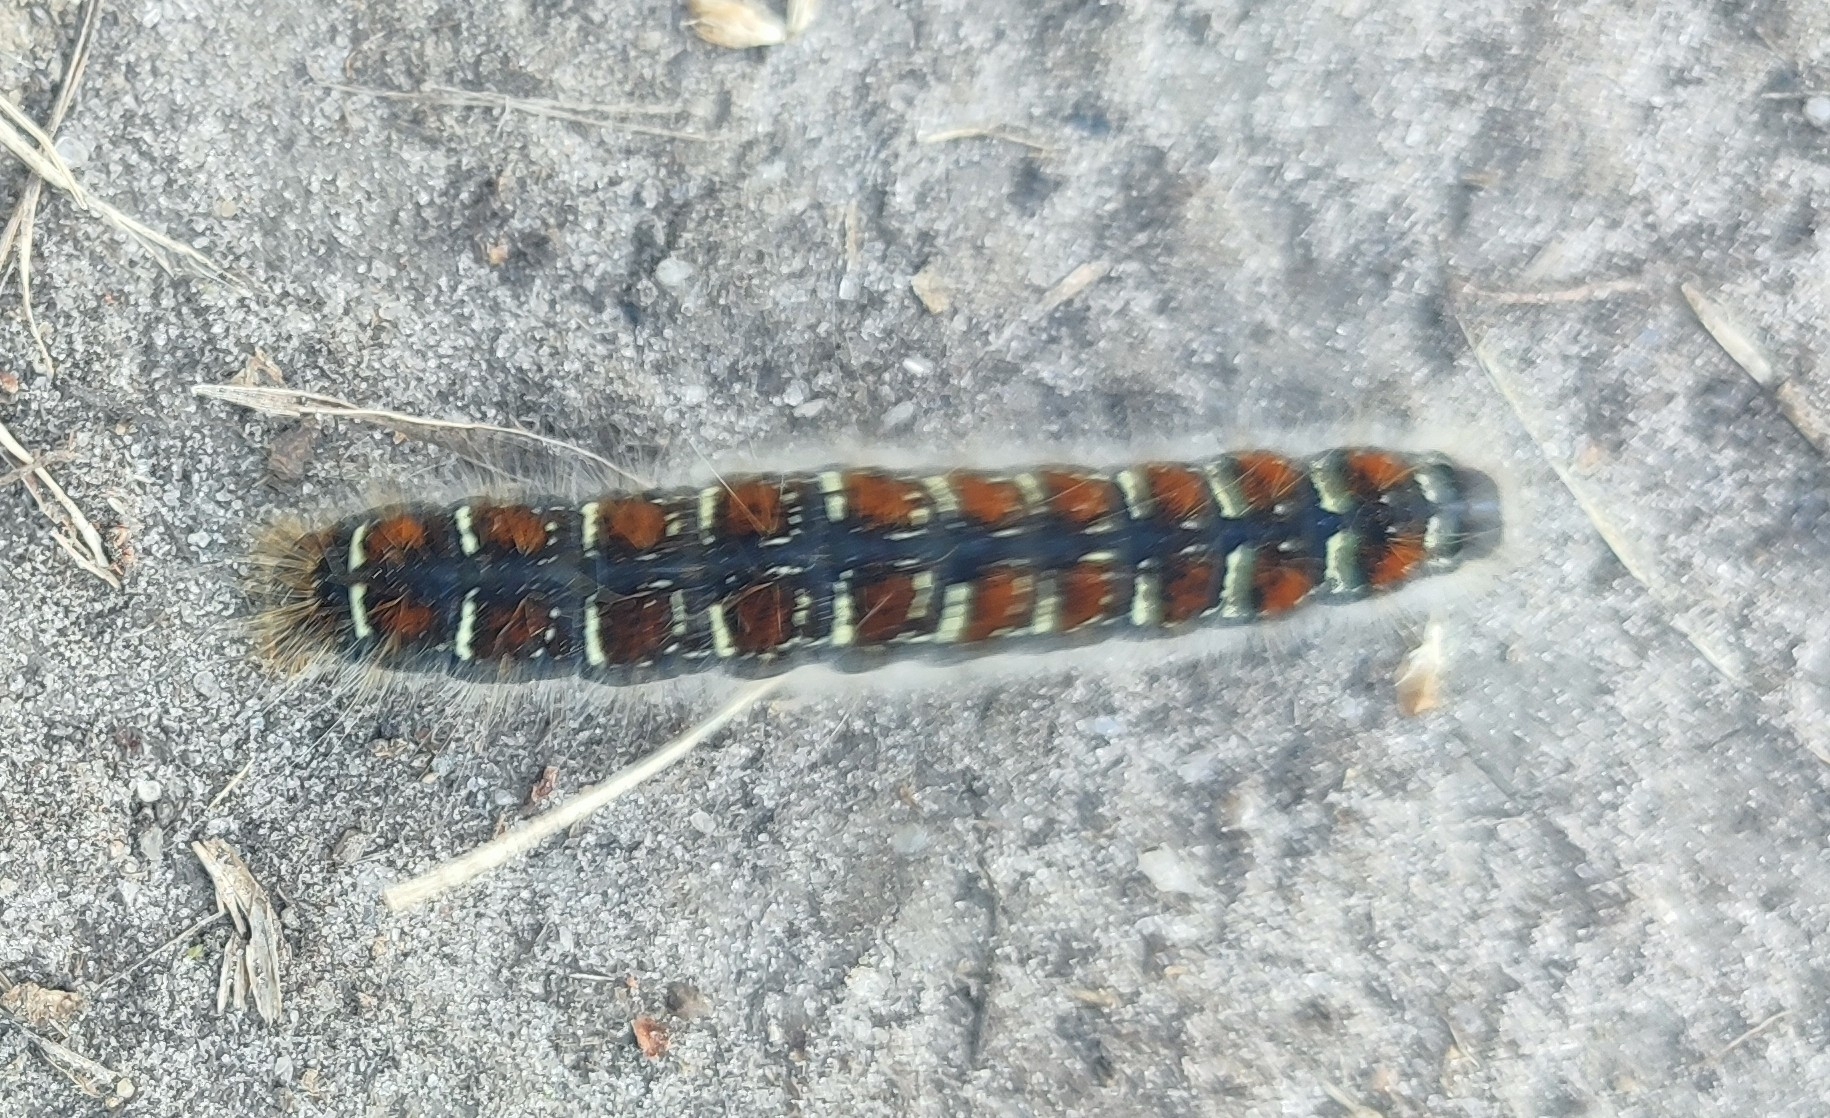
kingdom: Animalia
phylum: Arthropoda
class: Insecta
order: Lepidoptera
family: Lasiocampidae
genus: Eriogaster
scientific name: Eriogaster lanestris
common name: Small eggar
